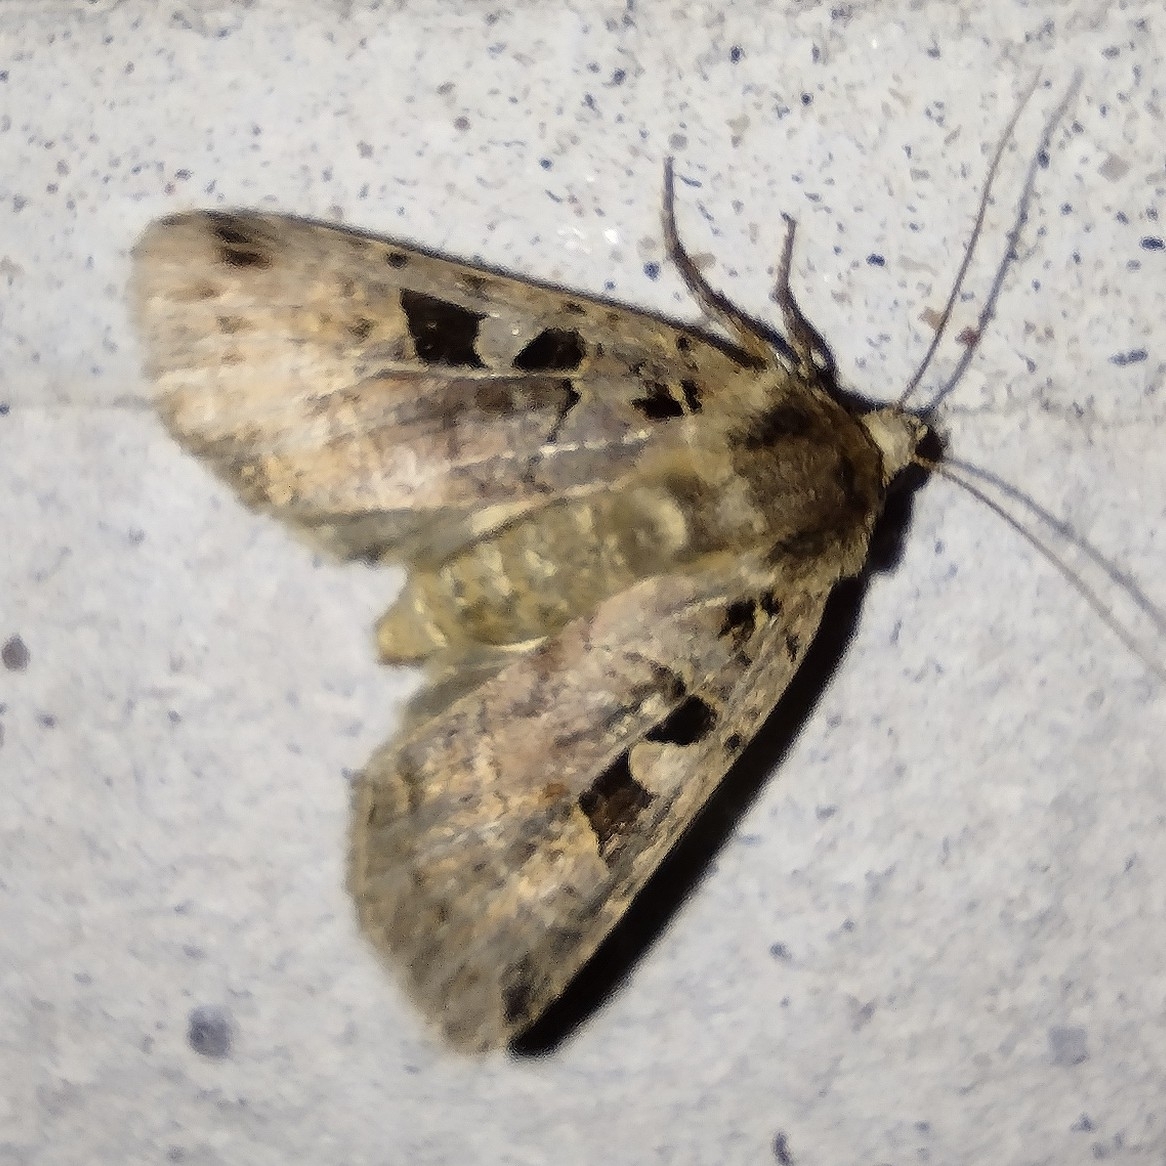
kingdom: Animalia
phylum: Arthropoda
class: Insecta
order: Lepidoptera
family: Noctuidae
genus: Xestia
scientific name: Xestia triangulum
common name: Double square-spot
